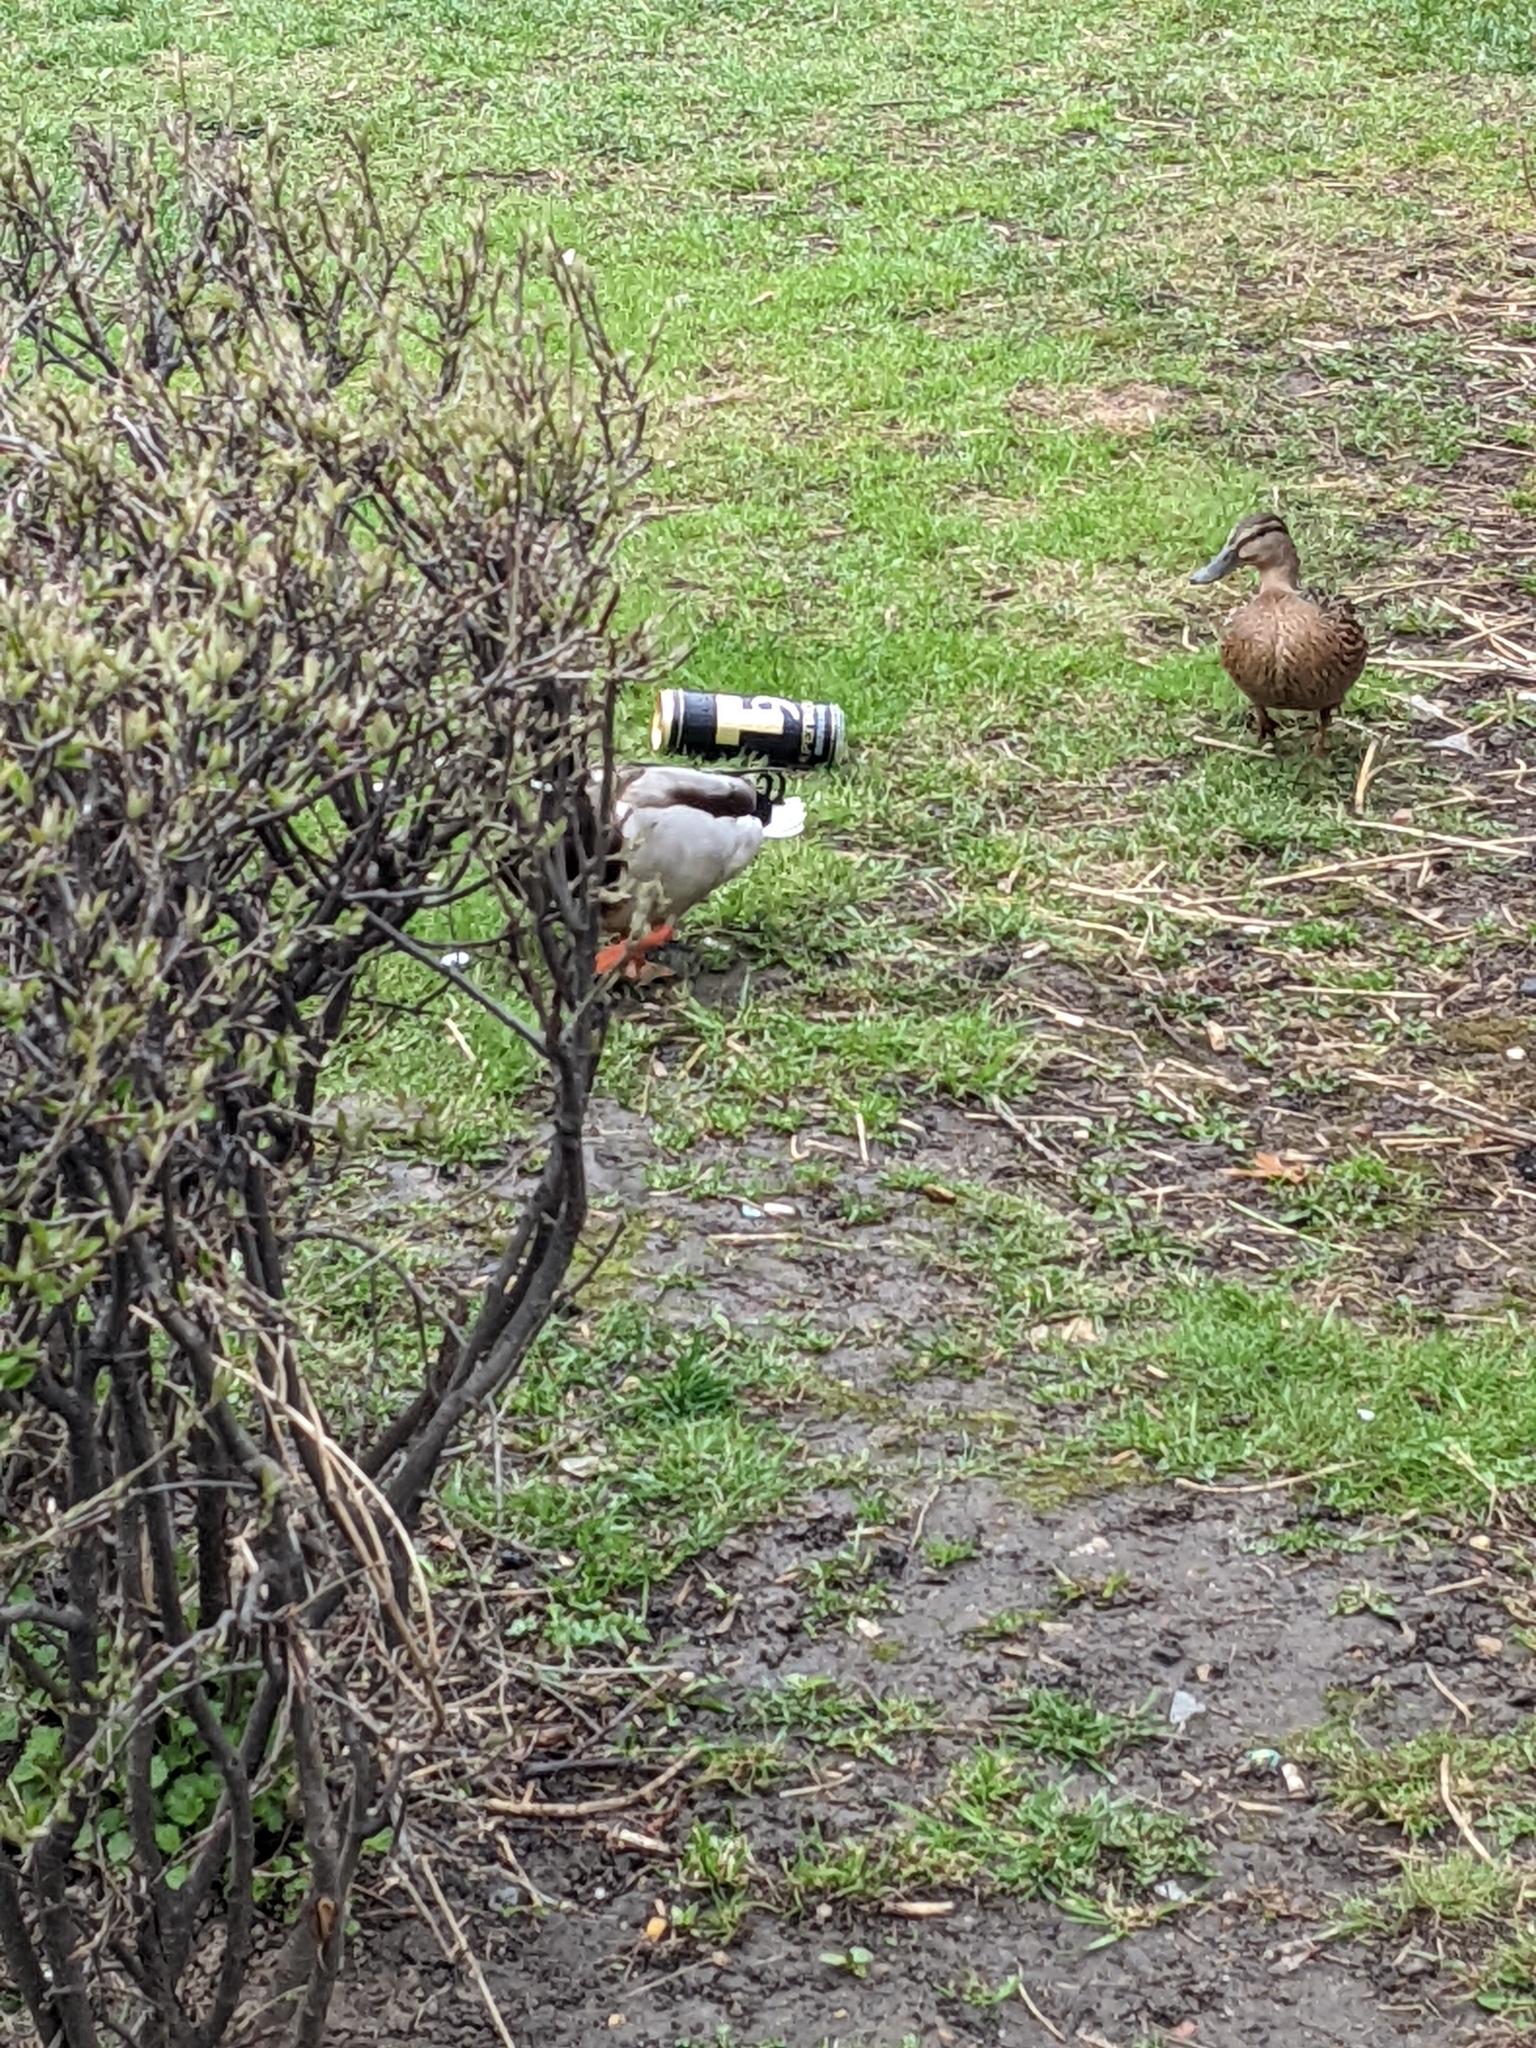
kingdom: Animalia
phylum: Chordata
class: Aves
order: Anseriformes
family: Anatidae
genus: Anas
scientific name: Anas platyrhynchos
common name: Mallard
